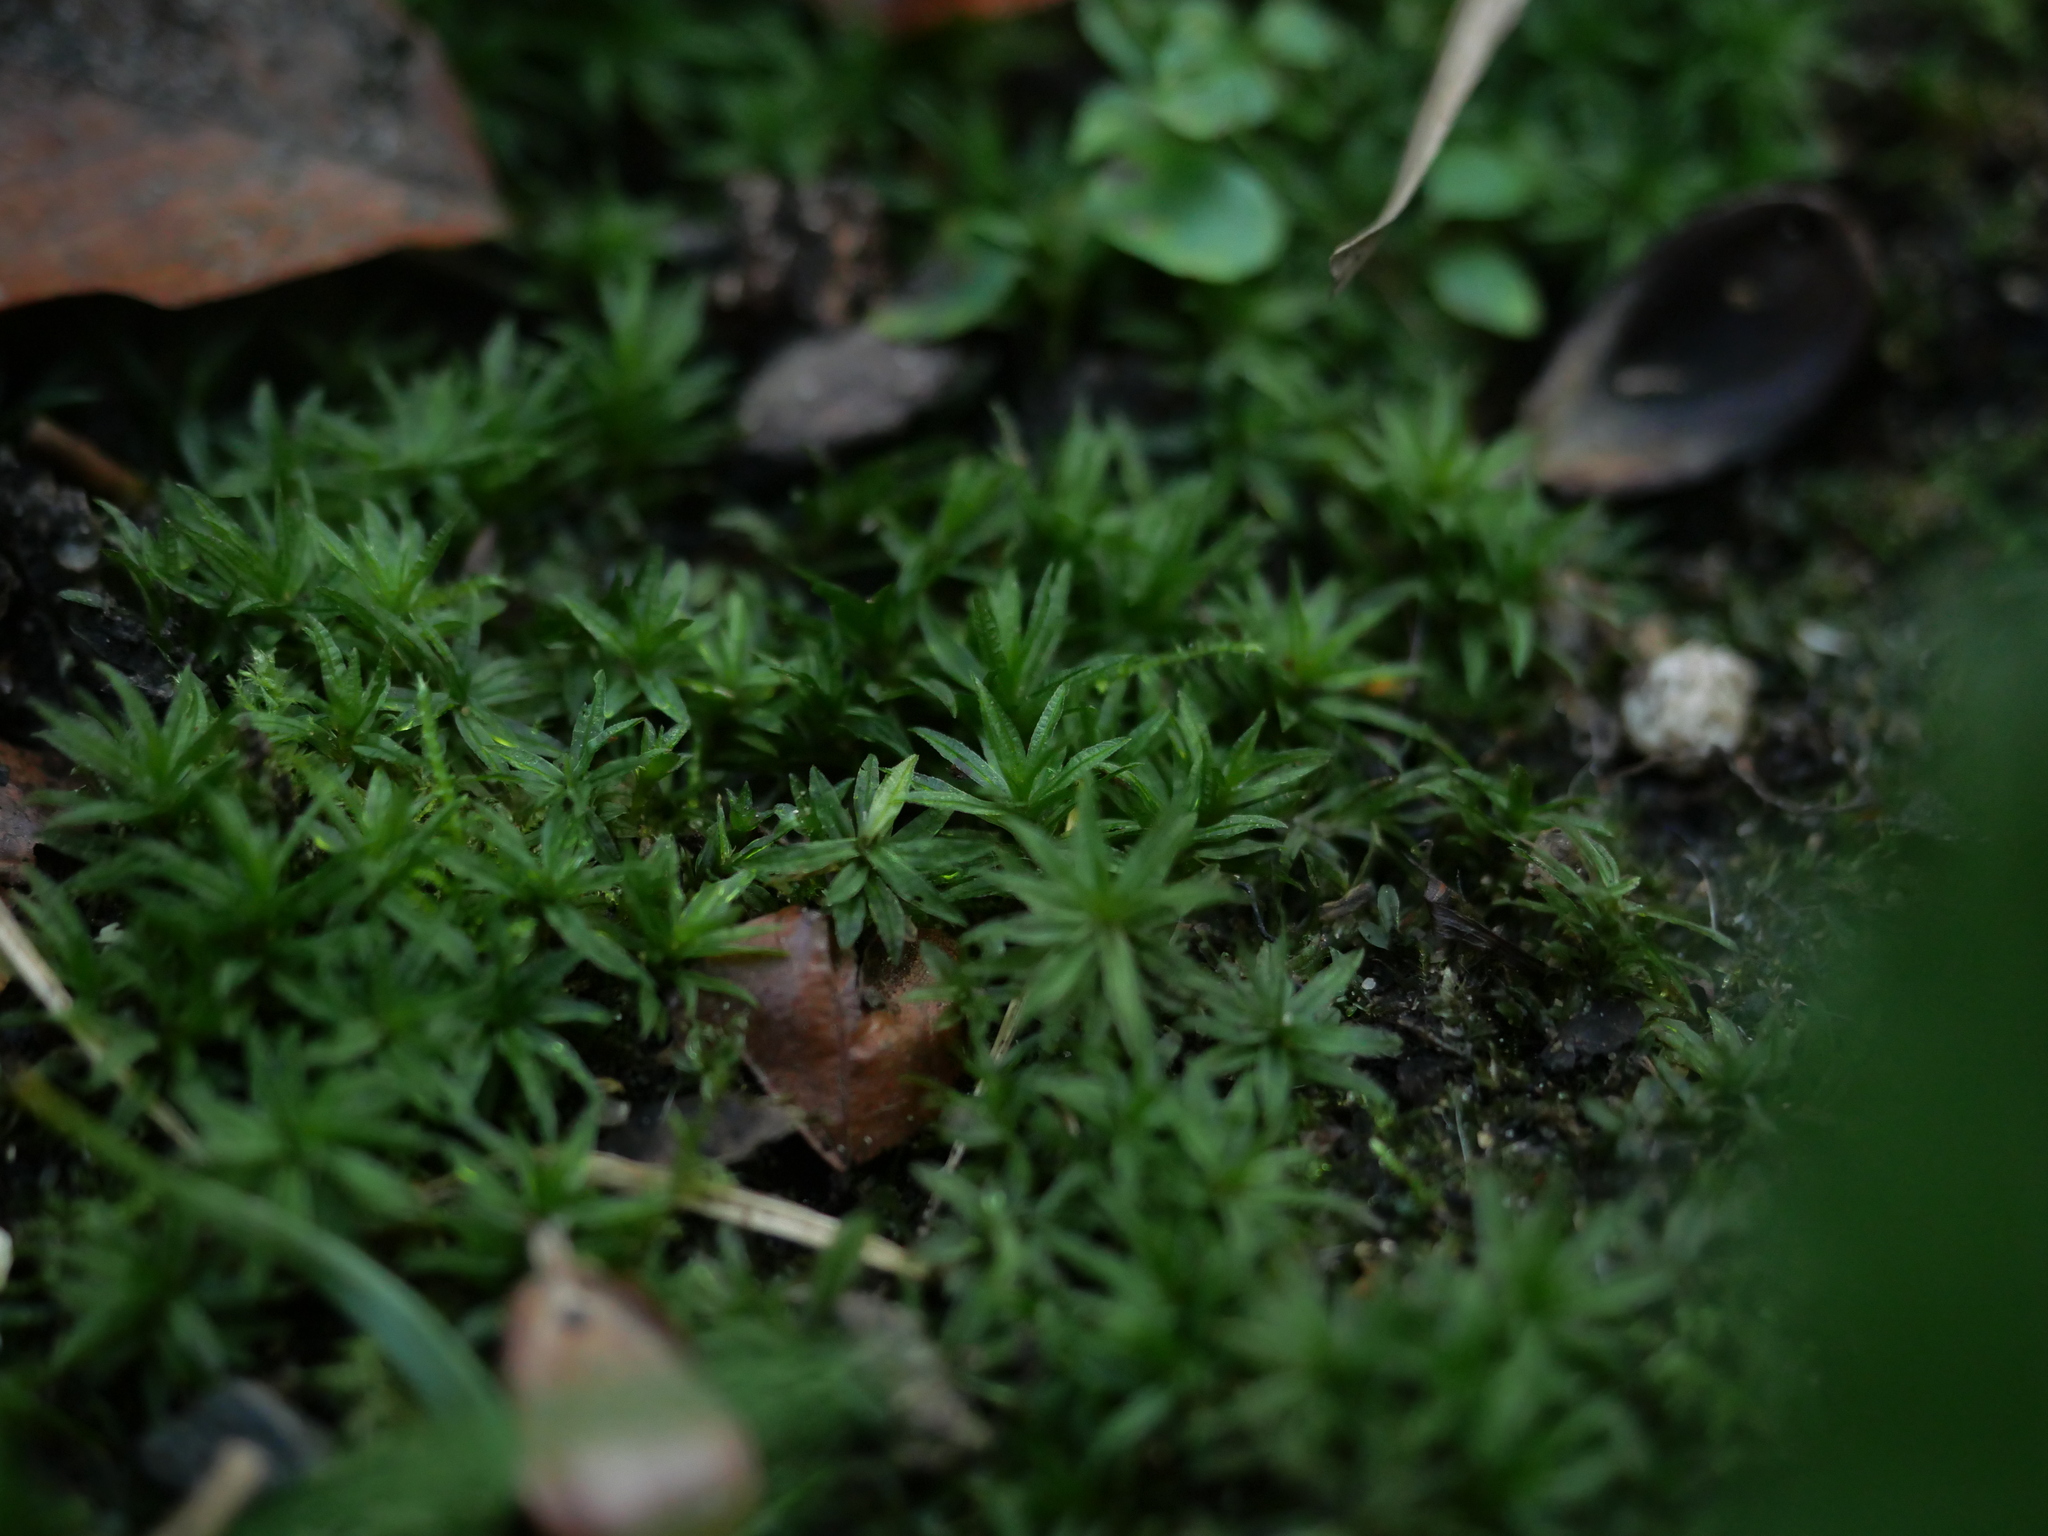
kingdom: Plantae
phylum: Bryophyta
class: Polytrichopsida
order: Polytrichales
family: Polytrichaceae
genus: Atrichum
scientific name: Atrichum undulatum
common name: Common smoothcap
